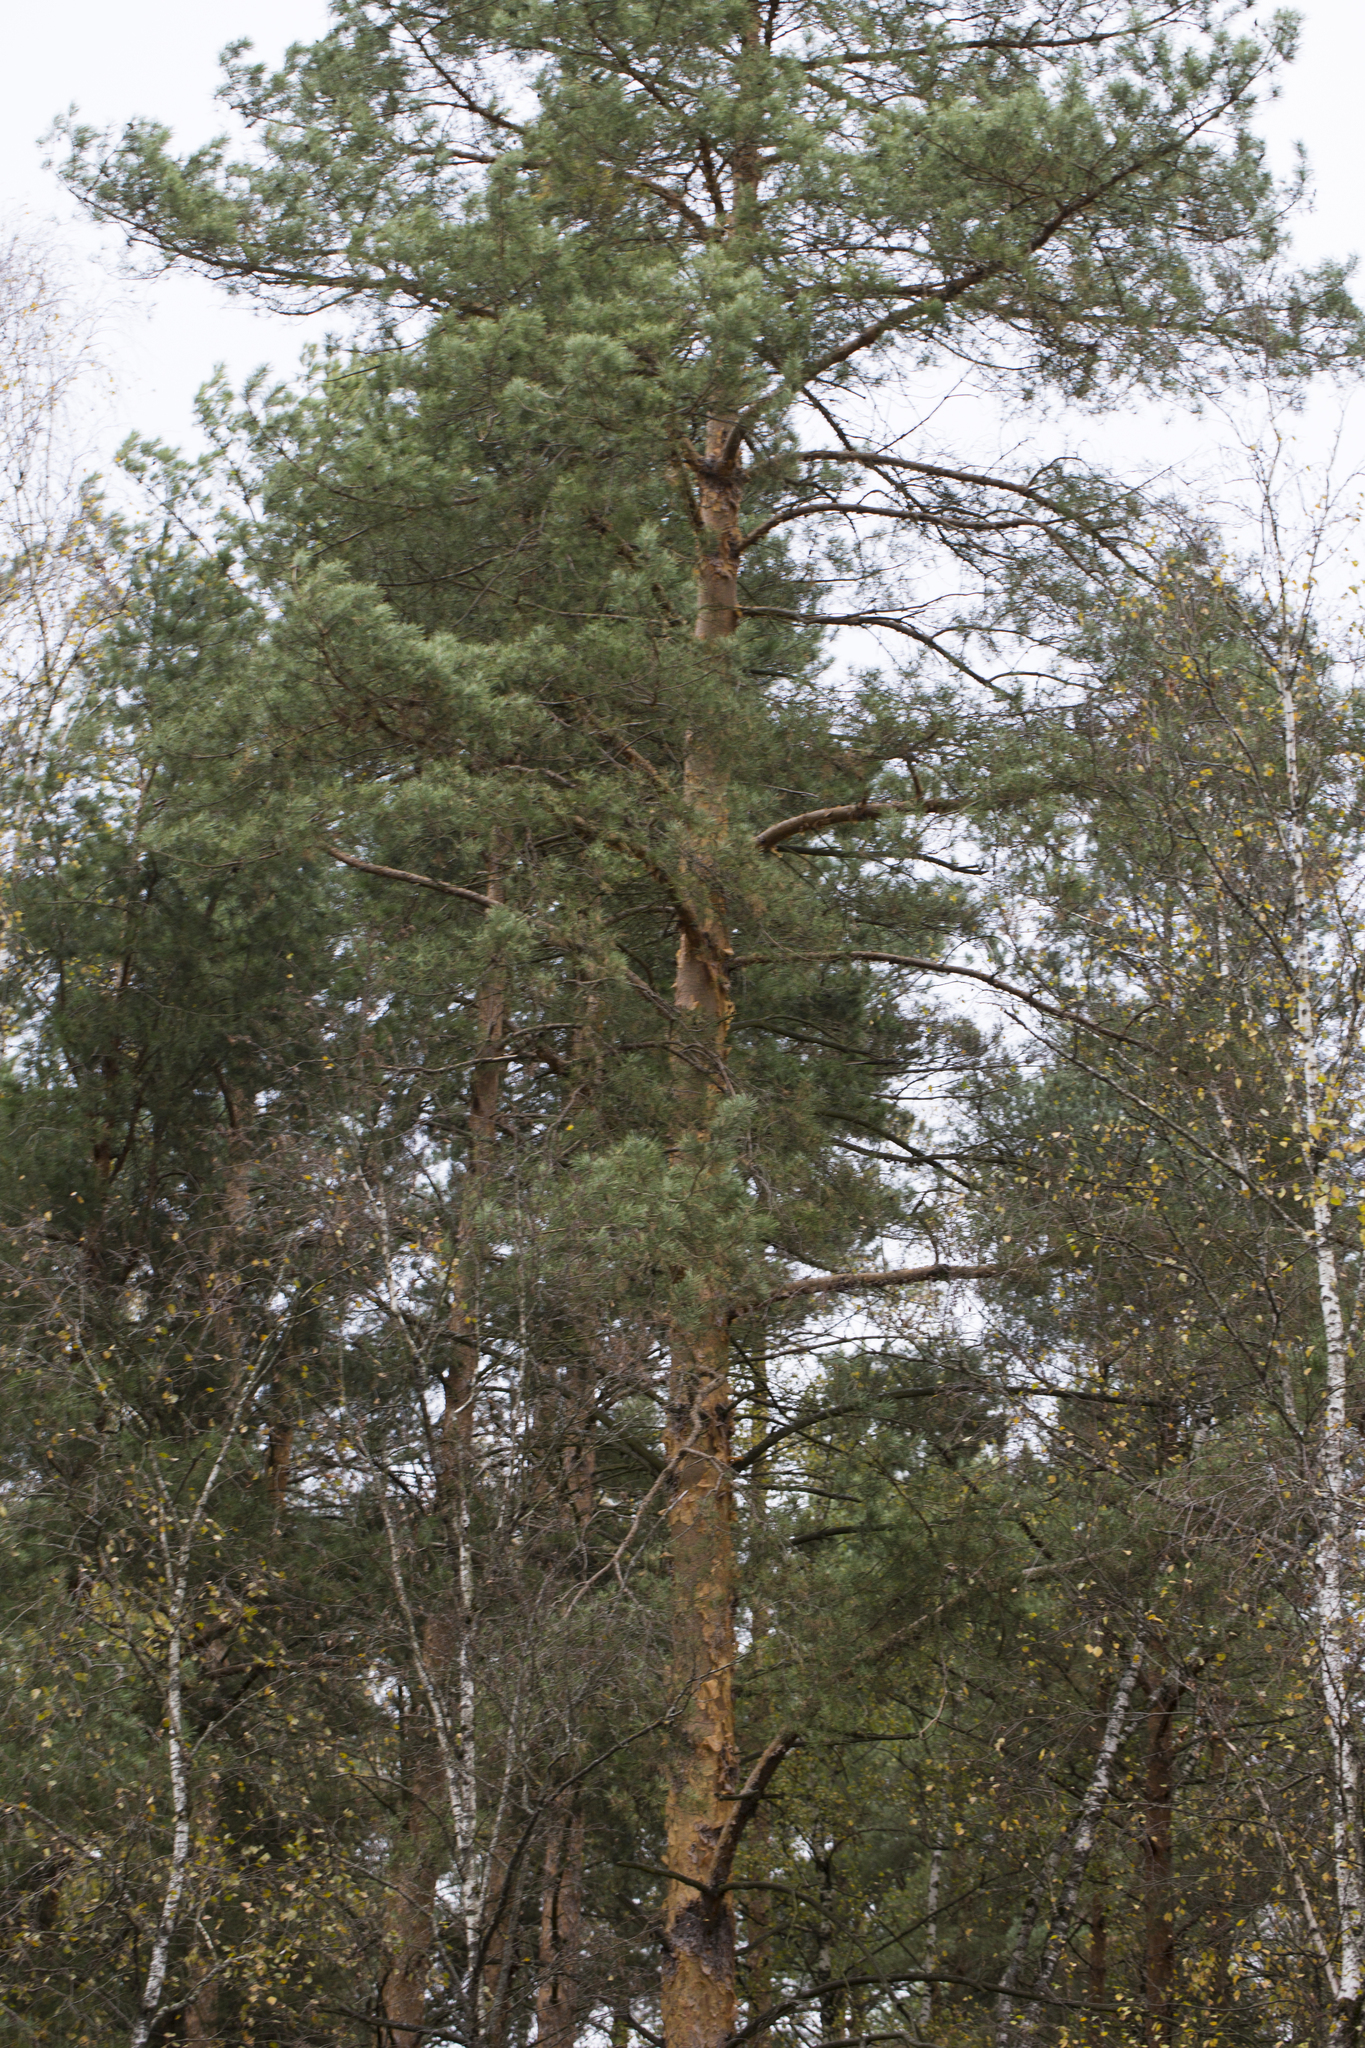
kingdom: Plantae
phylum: Tracheophyta
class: Pinopsida
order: Pinales
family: Pinaceae
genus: Pinus
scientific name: Pinus sylvestris
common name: Scots pine
